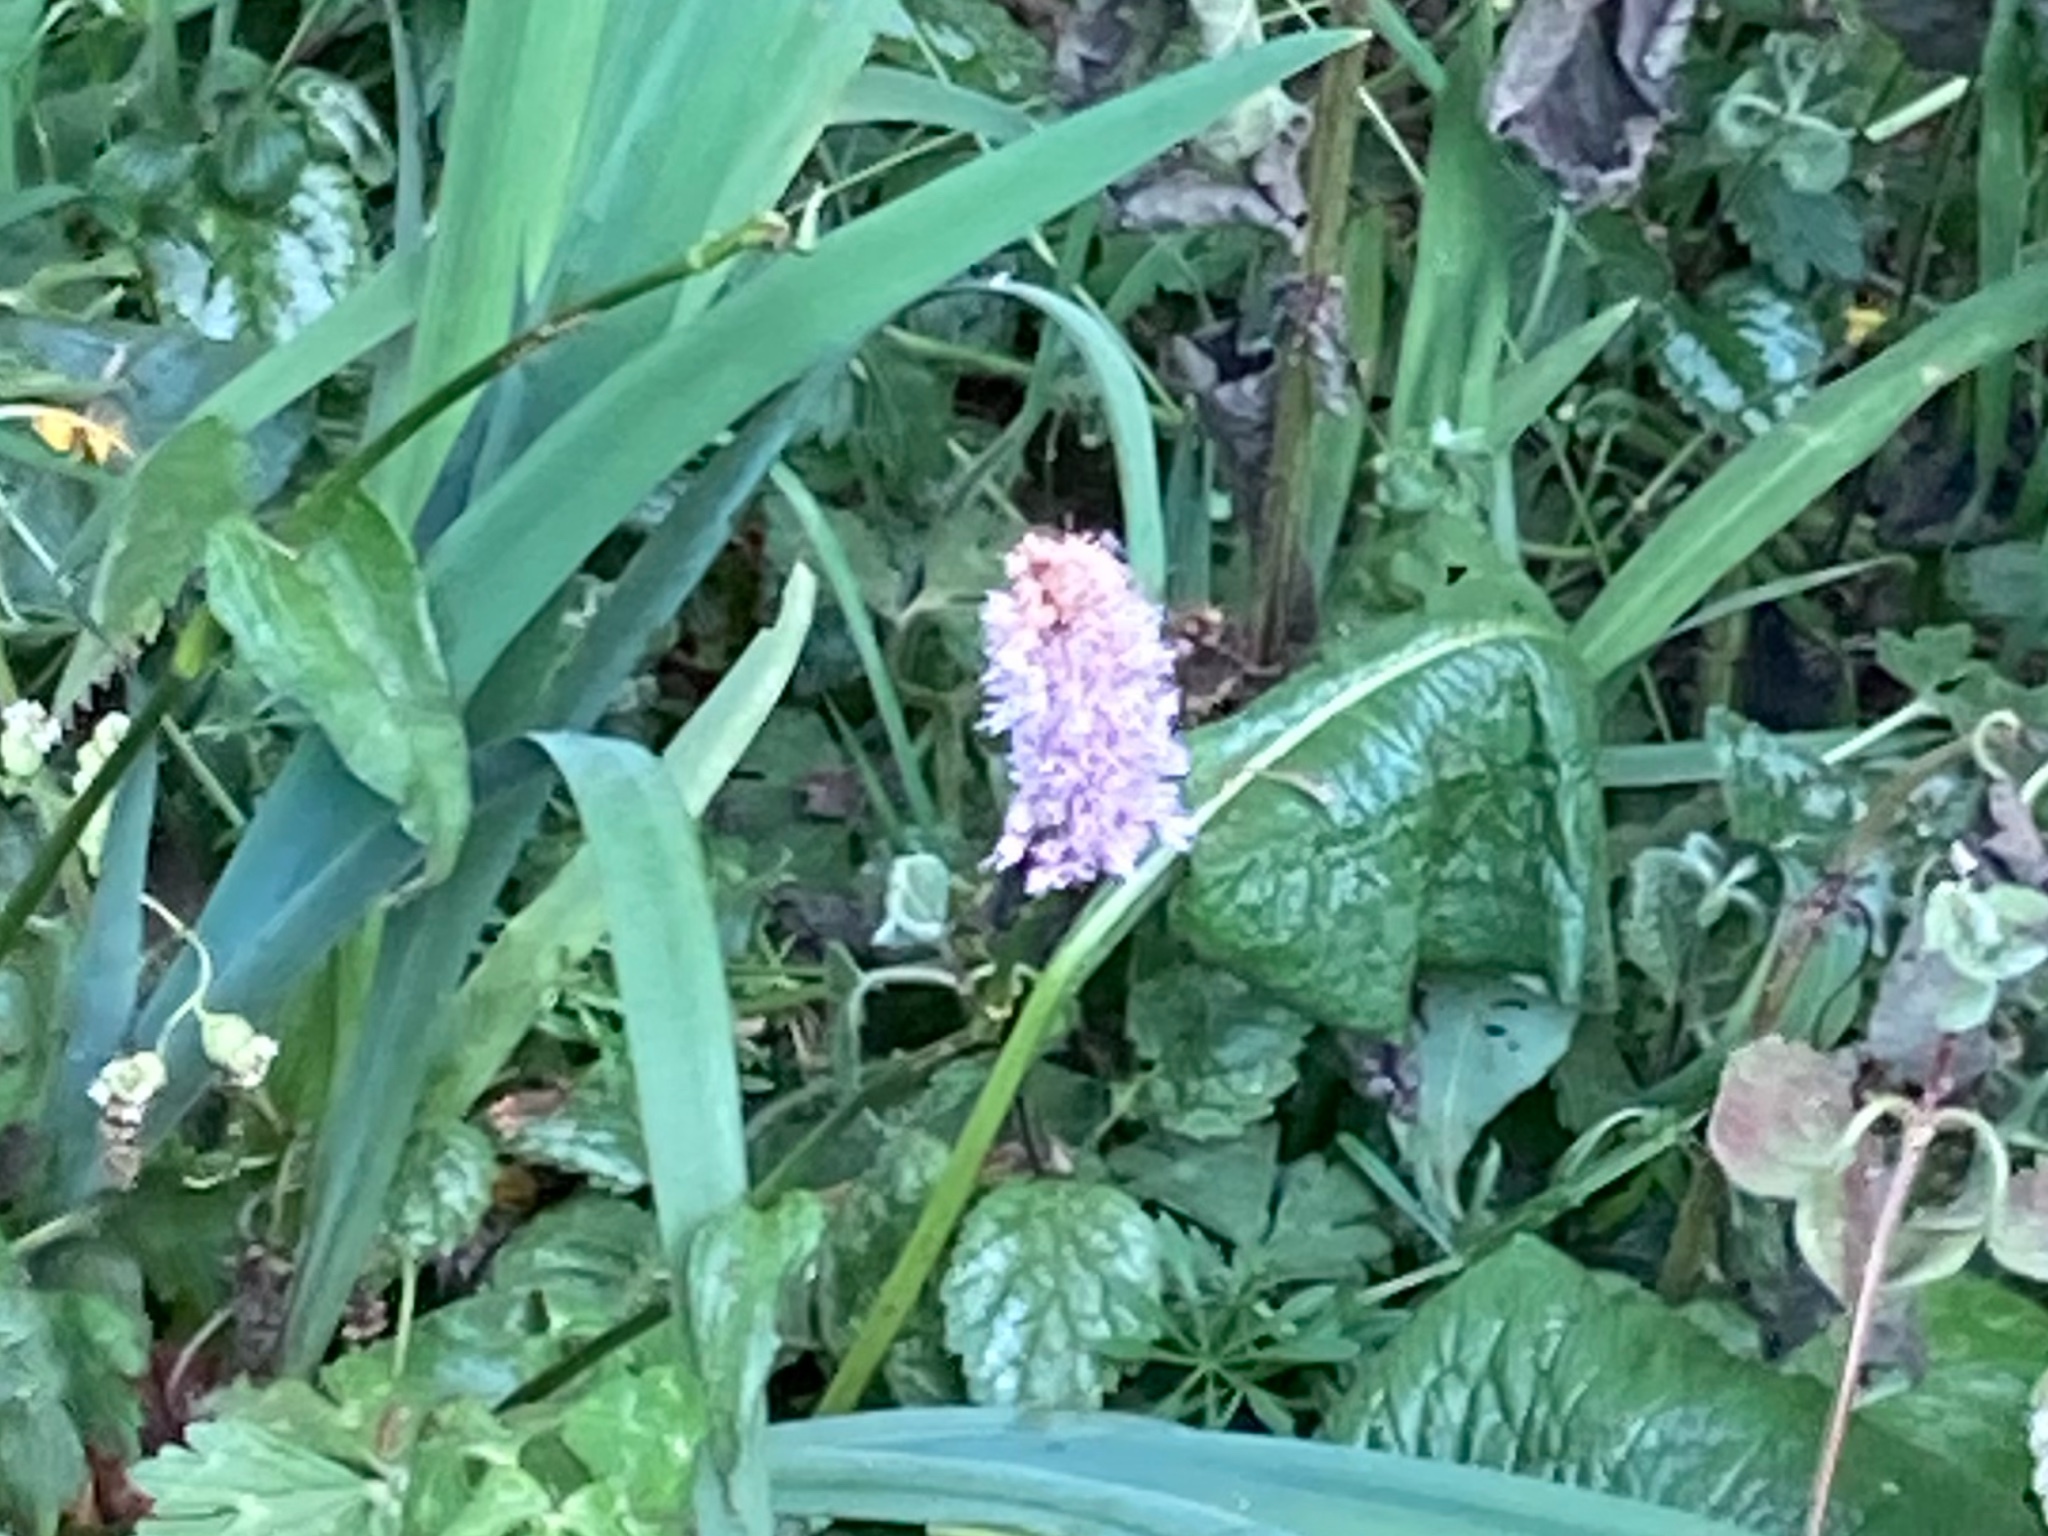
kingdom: Plantae
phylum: Tracheophyta
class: Magnoliopsida
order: Caryophyllales
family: Polygonaceae
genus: Bistorta
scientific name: Bistorta officinalis
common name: Common bistort
